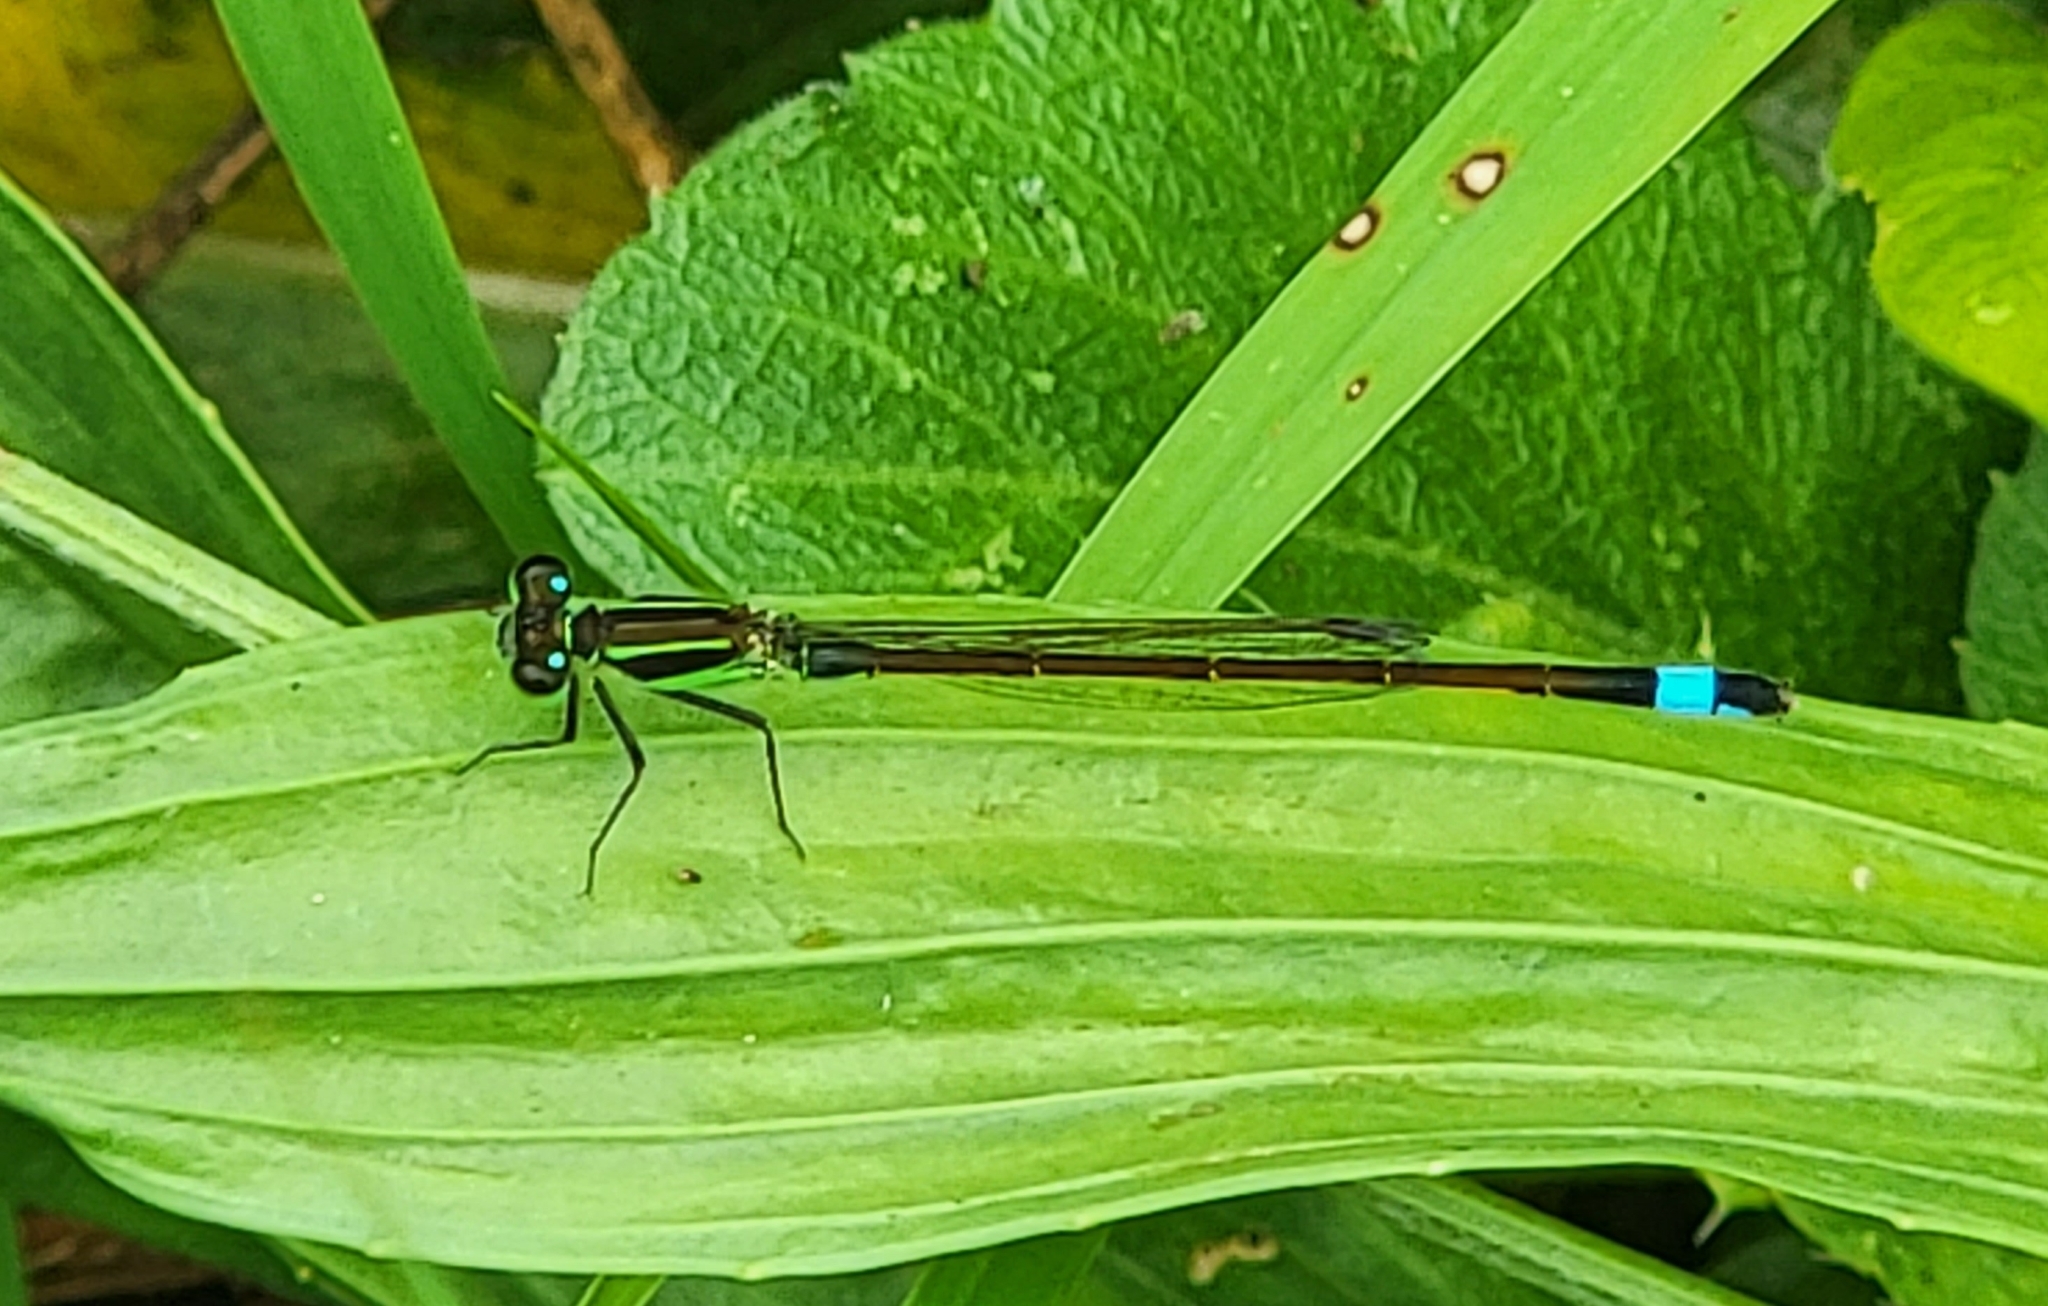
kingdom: Animalia
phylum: Arthropoda
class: Insecta
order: Odonata
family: Coenagrionidae
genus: Ischnura
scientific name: Ischnura ramburii
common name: Rambur's forktail
